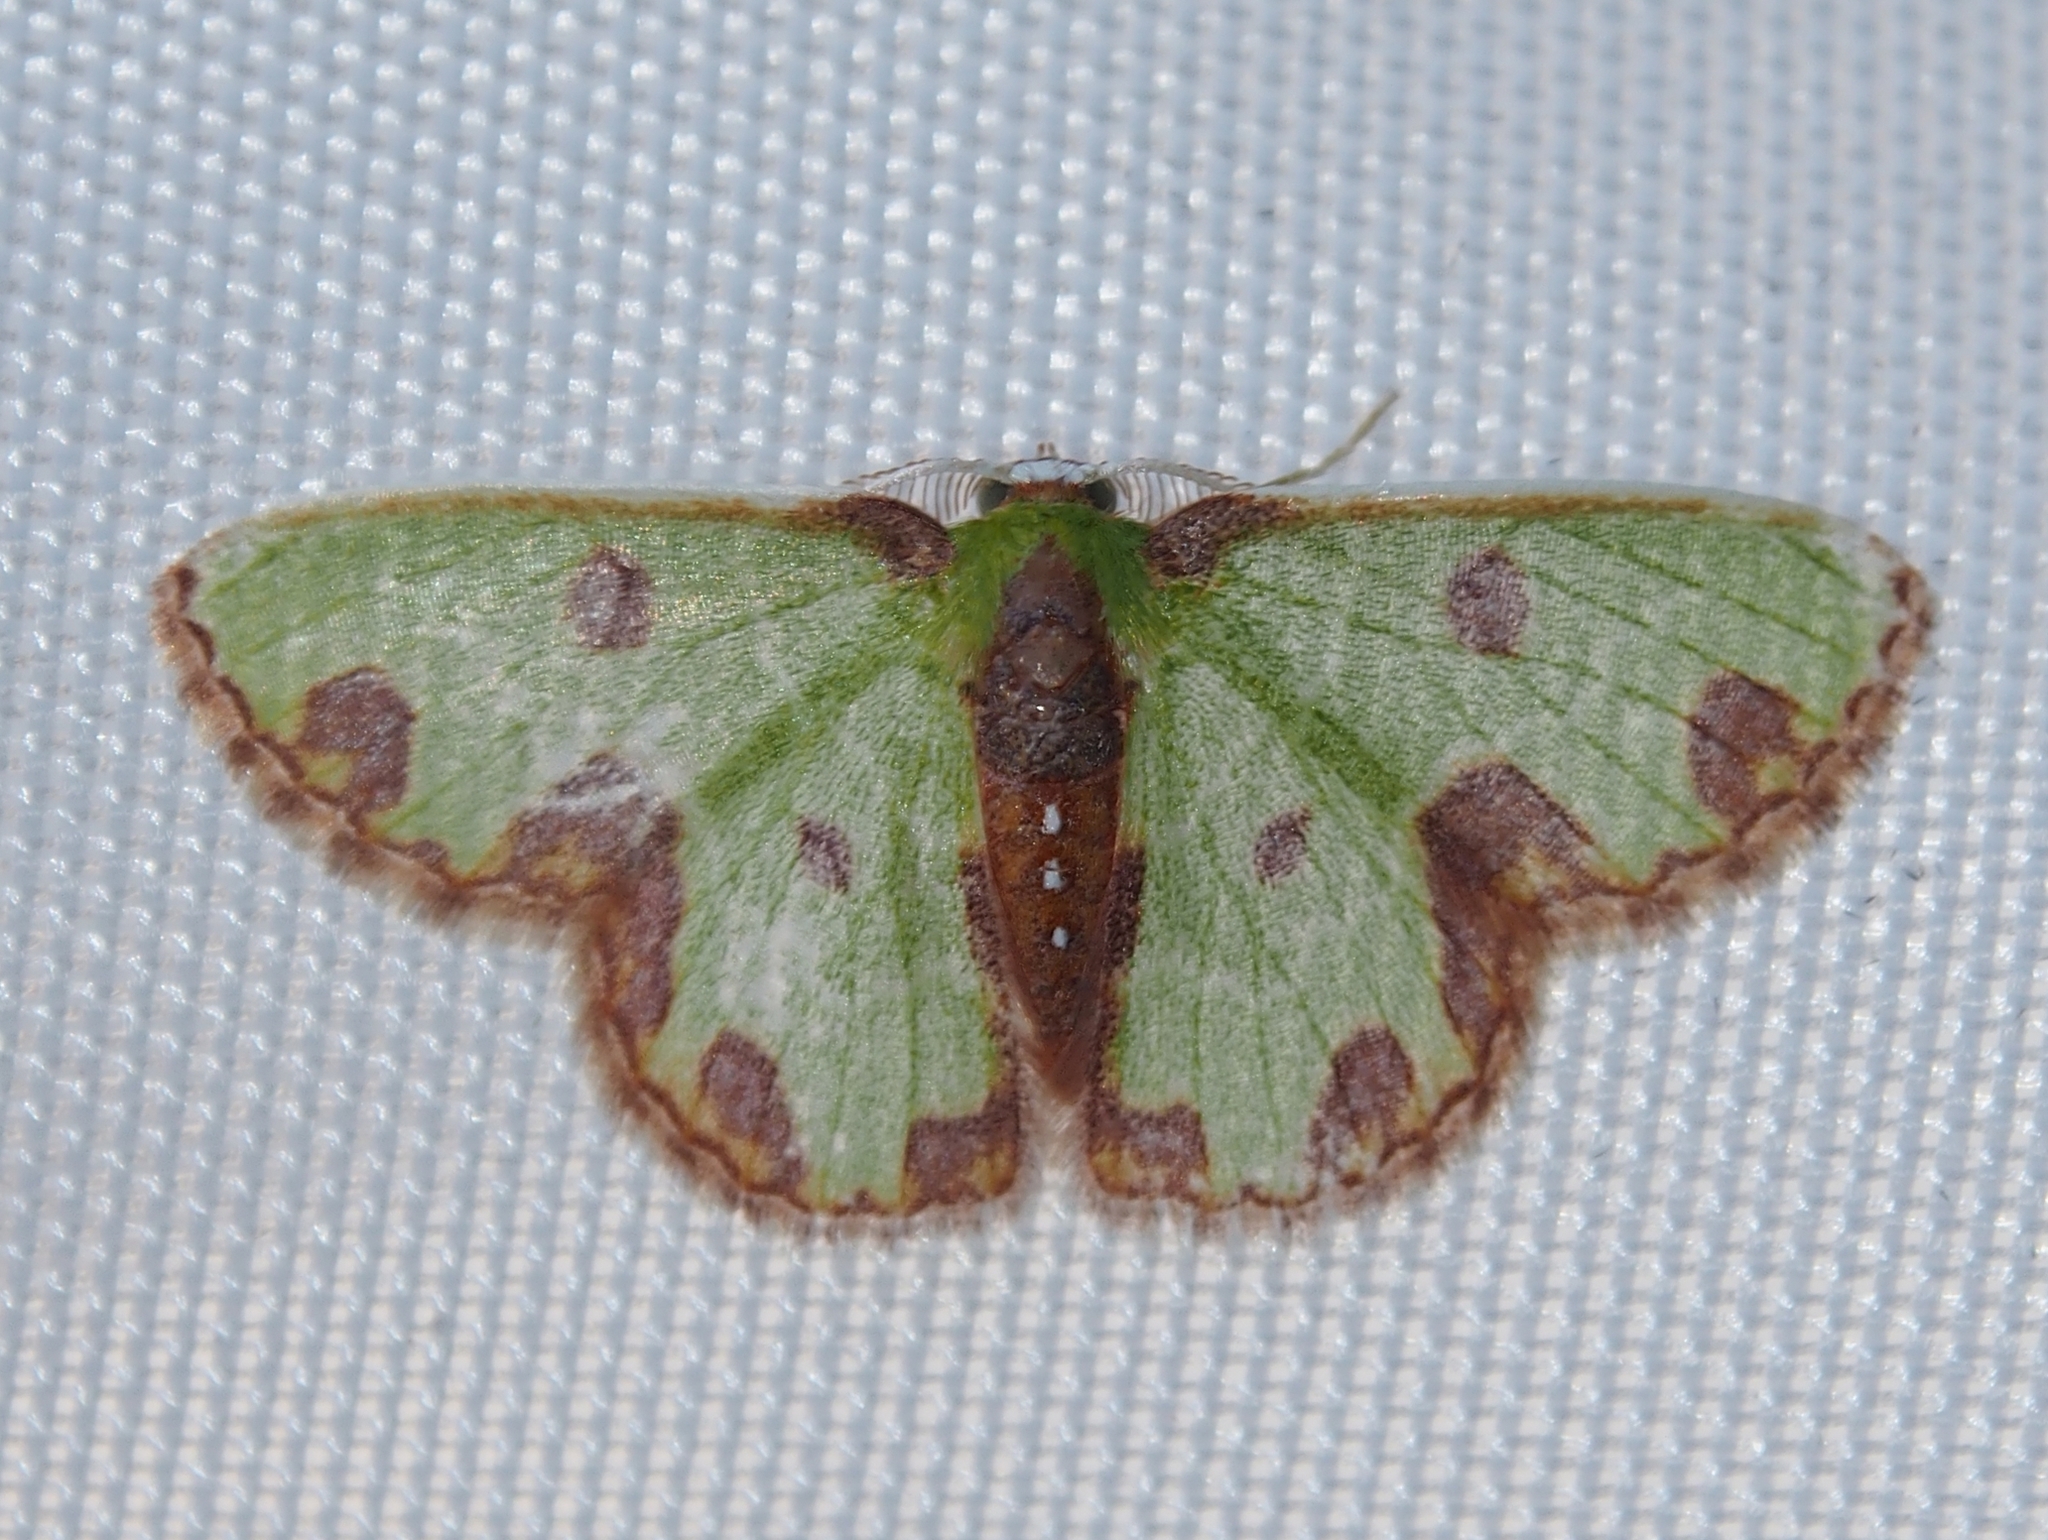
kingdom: Animalia
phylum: Arthropoda
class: Insecta
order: Lepidoptera
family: Geometridae
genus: Synchlora
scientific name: Synchlora gerularia
